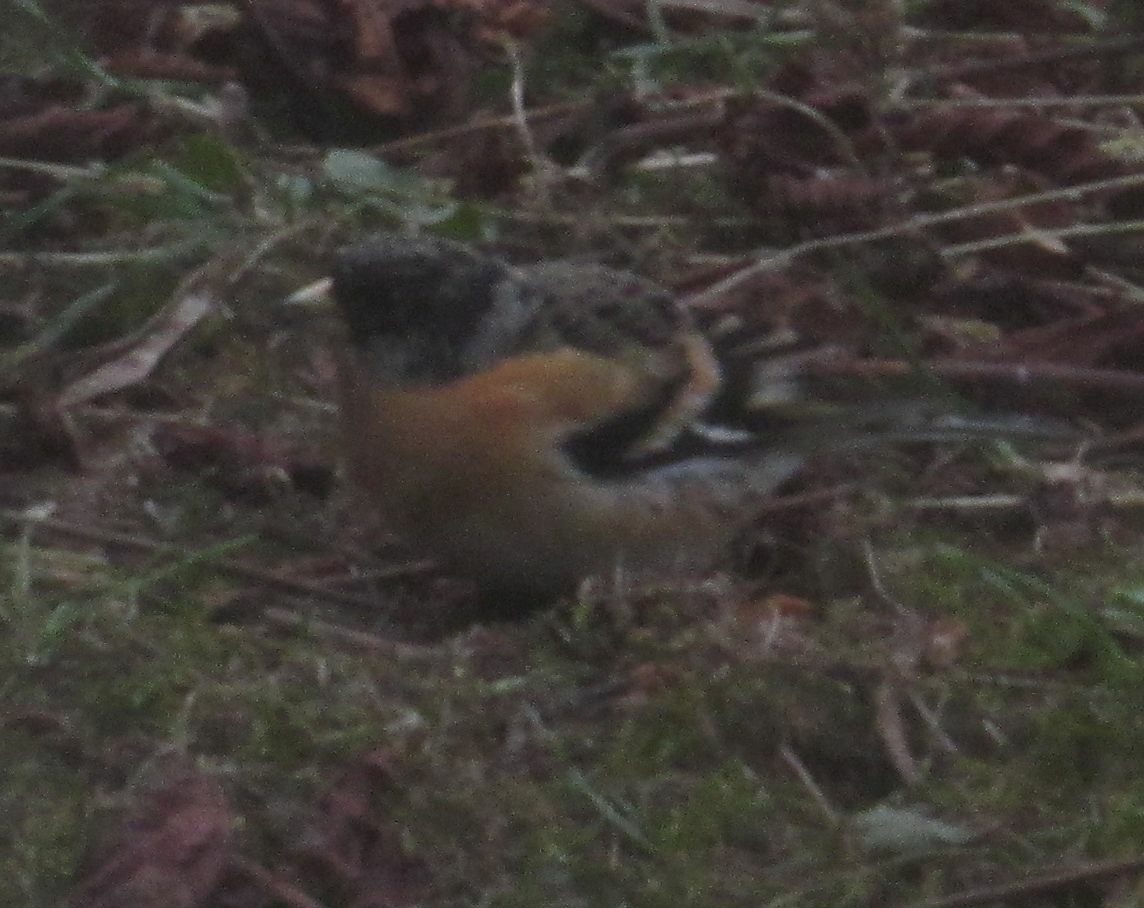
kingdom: Animalia
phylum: Chordata
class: Aves
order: Passeriformes
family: Fringillidae
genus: Fringilla
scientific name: Fringilla montifringilla
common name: Brambling
